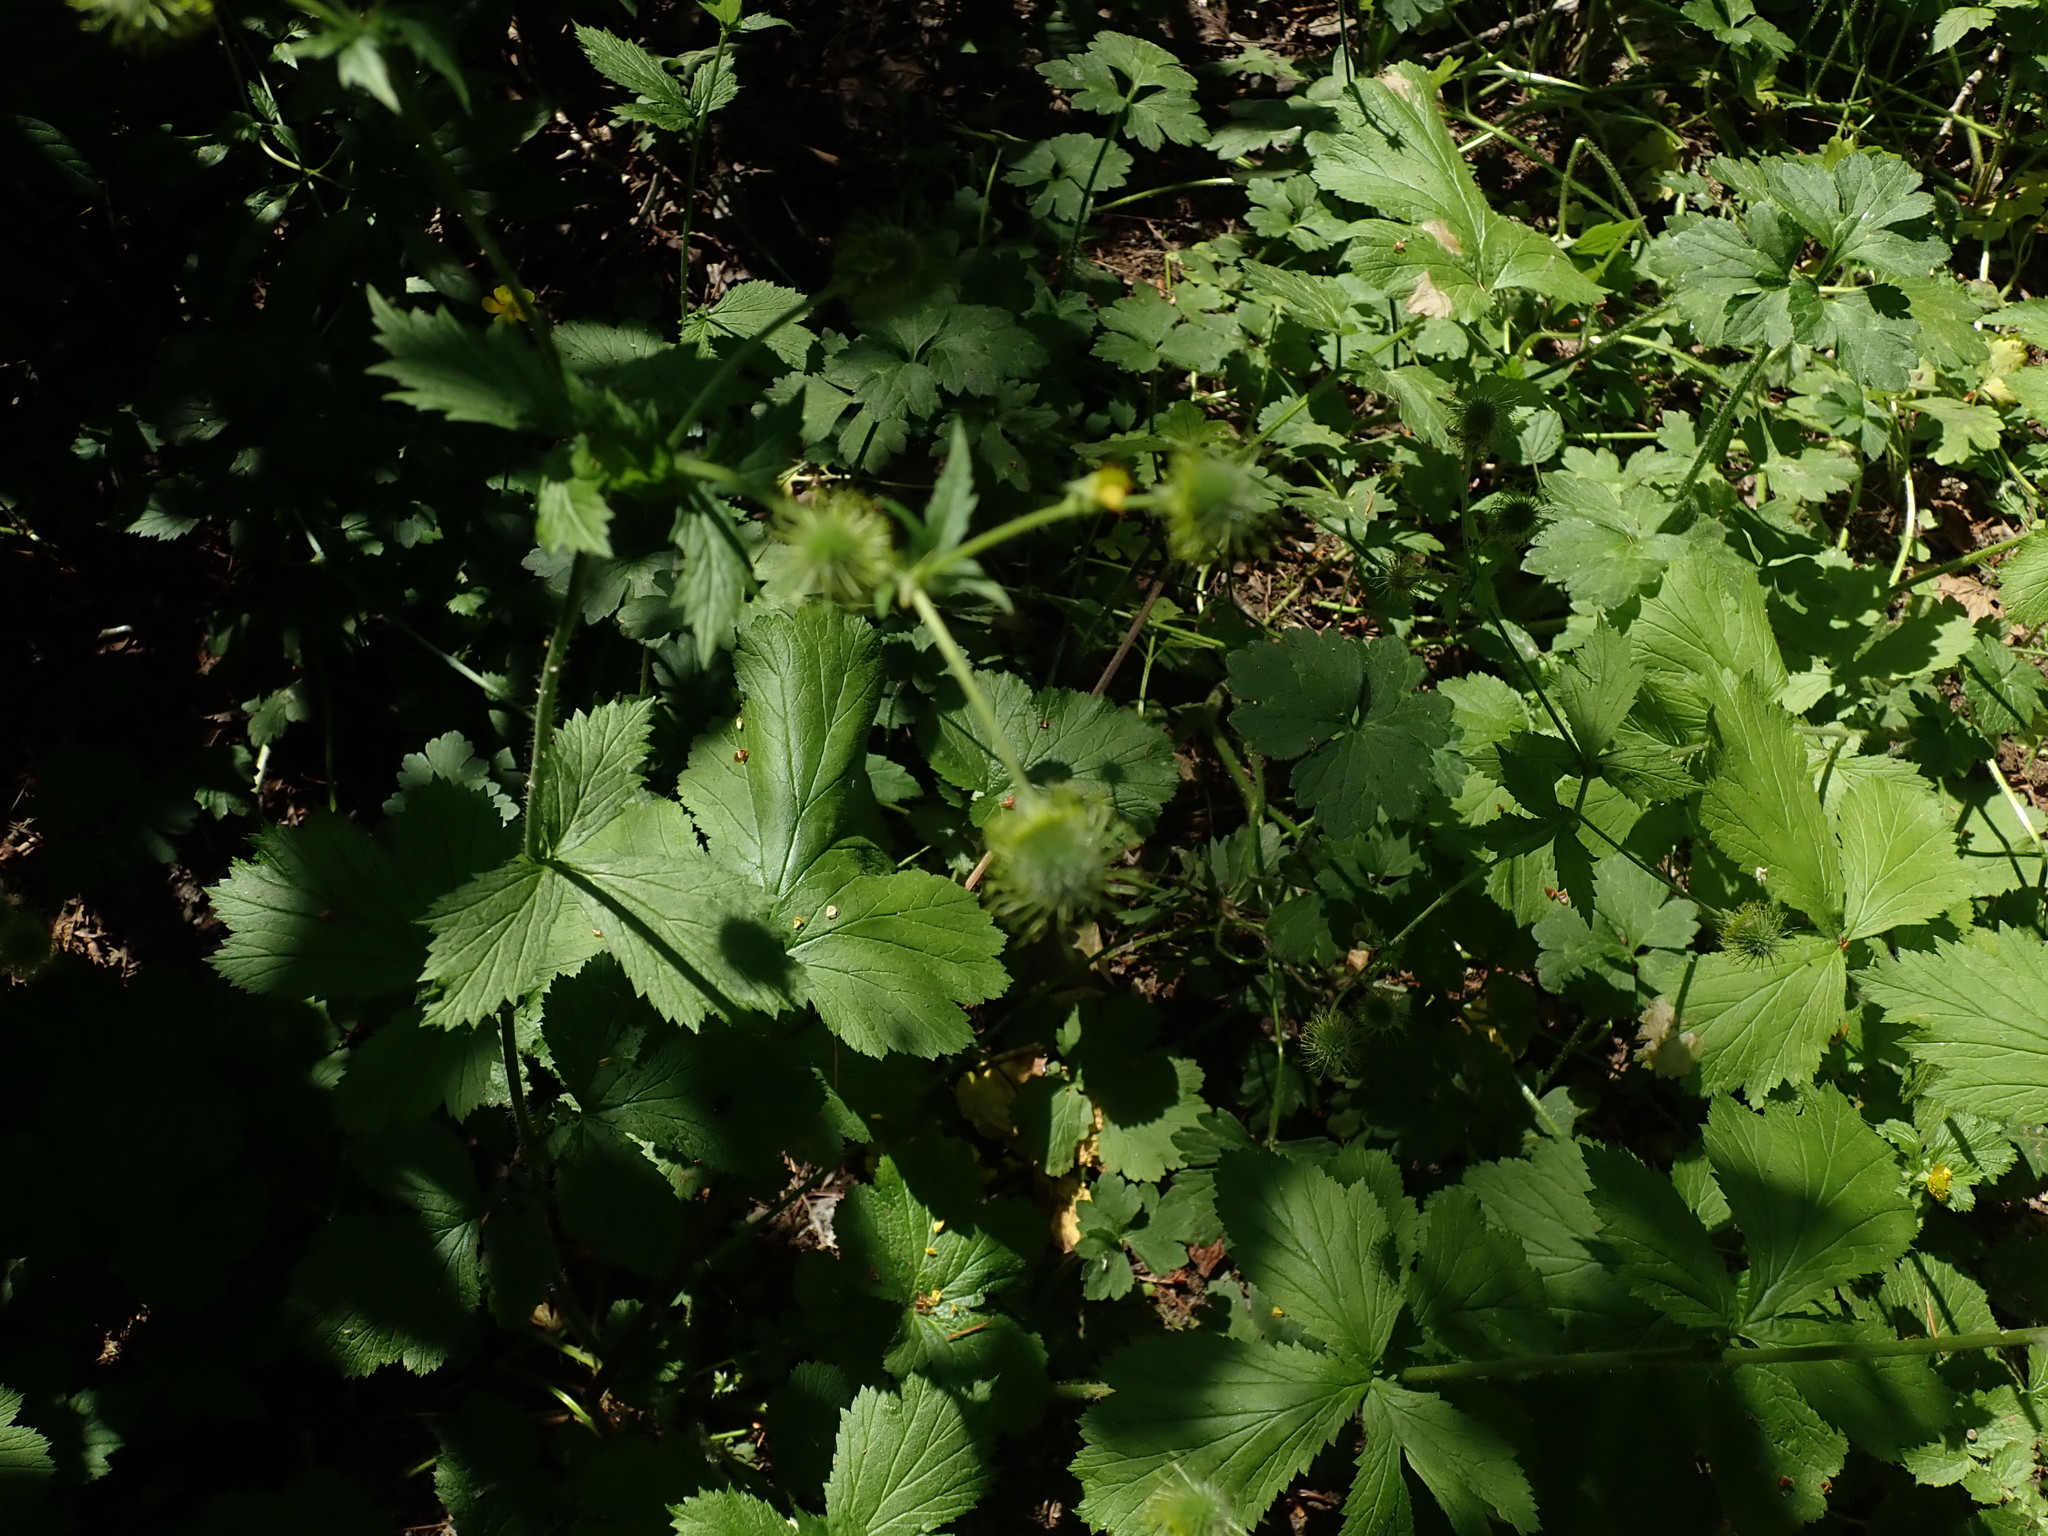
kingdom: Plantae
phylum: Tracheophyta
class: Magnoliopsida
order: Rosales
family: Rosaceae
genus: Geum
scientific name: Geum macrophyllum
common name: Large-leaved avens
